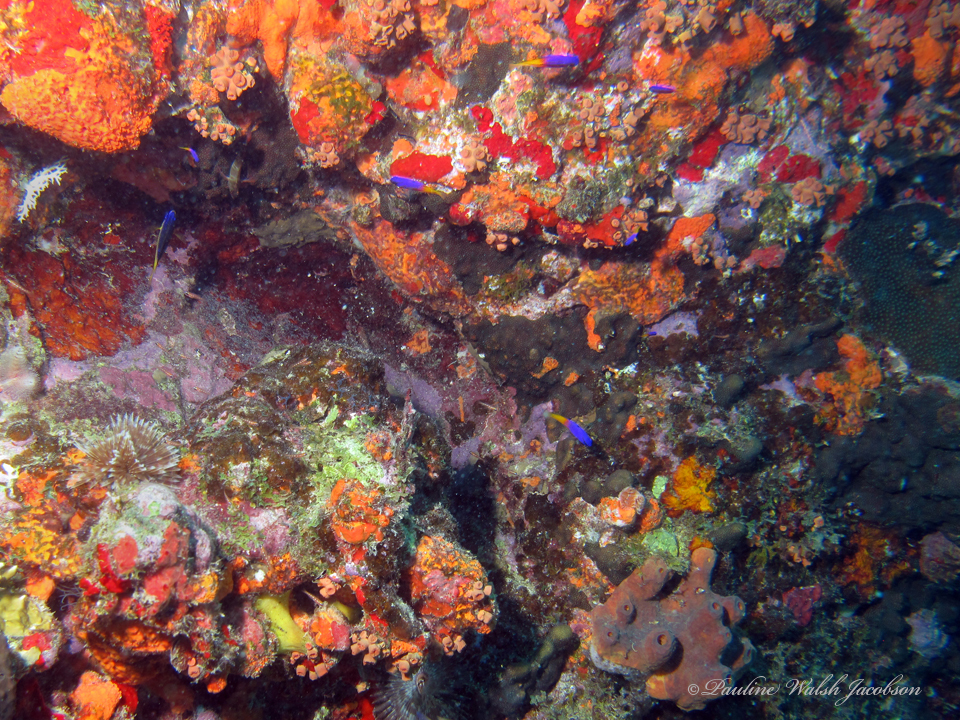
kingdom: Animalia
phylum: Chordata
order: Perciformes
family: Grammatidae
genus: Gramma
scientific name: Gramma loreto
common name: Fairy basslet
